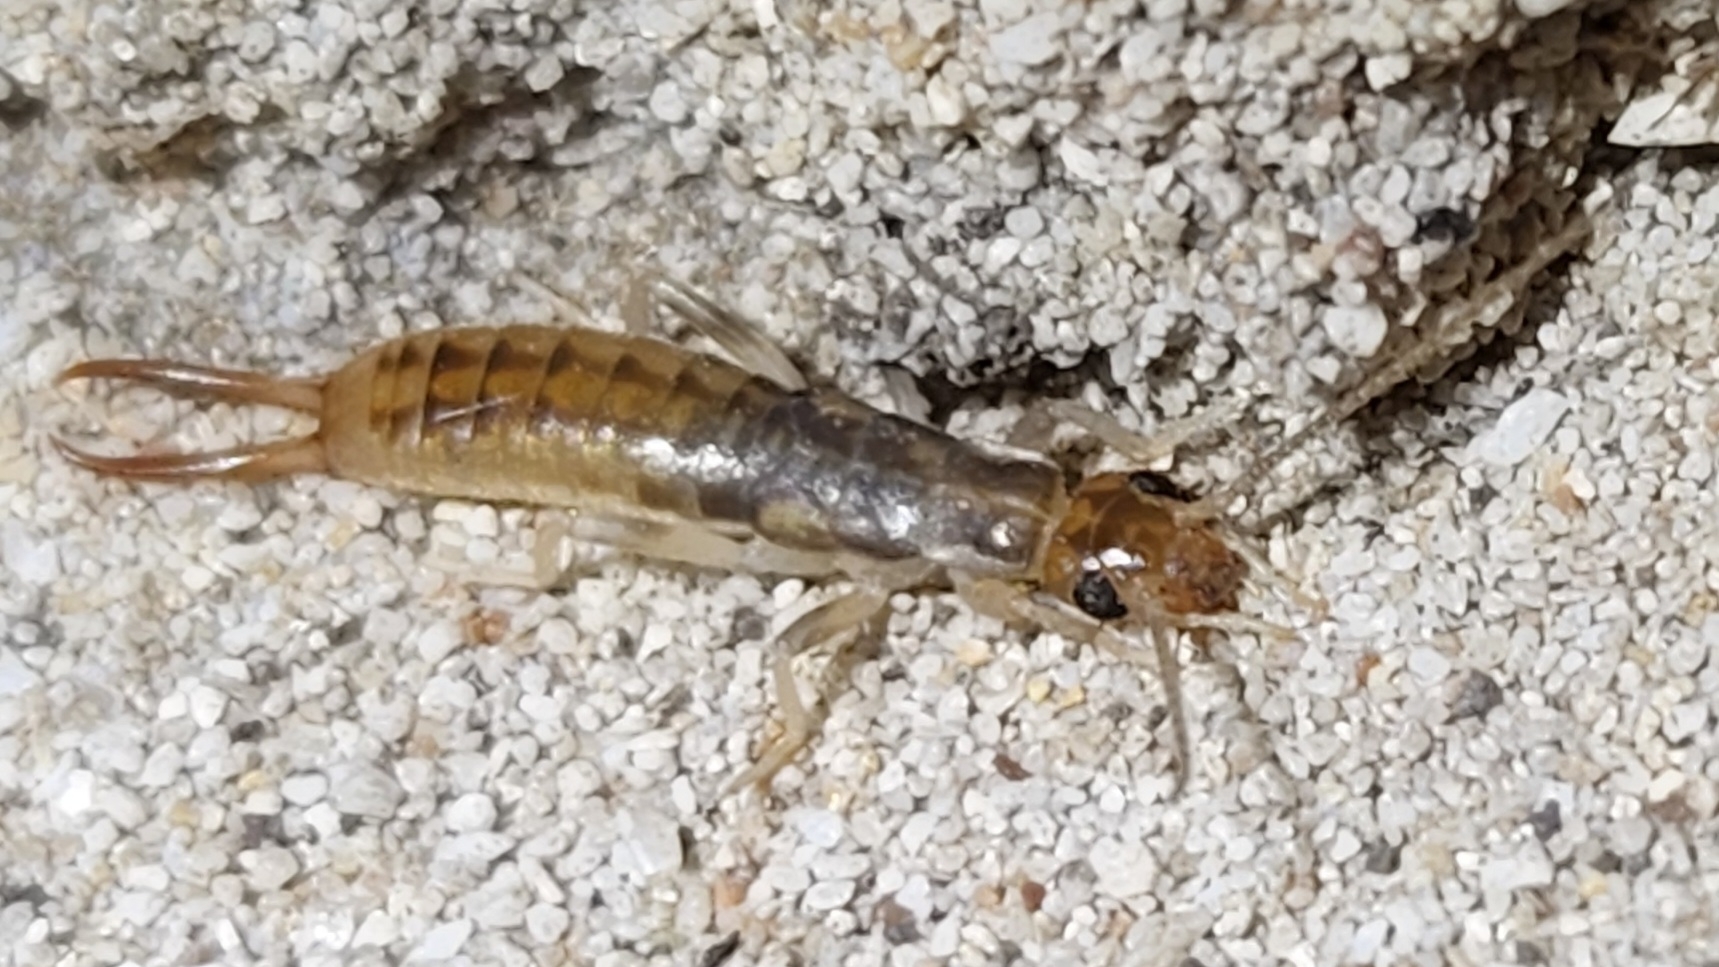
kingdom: Animalia
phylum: Arthropoda
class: Insecta
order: Dermaptera
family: Labiduridae
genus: Labidura
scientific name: Labidura riparia
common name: Striped earwig
